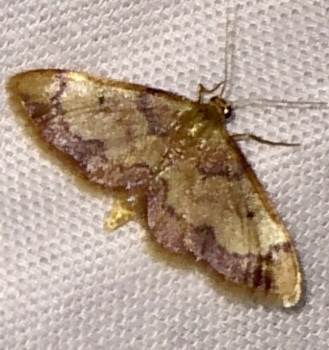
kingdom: Animalia
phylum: Arthropoda
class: Insecta
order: Lepidoptera
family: Geometridae
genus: Idaea
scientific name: Idaea demissaria
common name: Red-bordered wave
